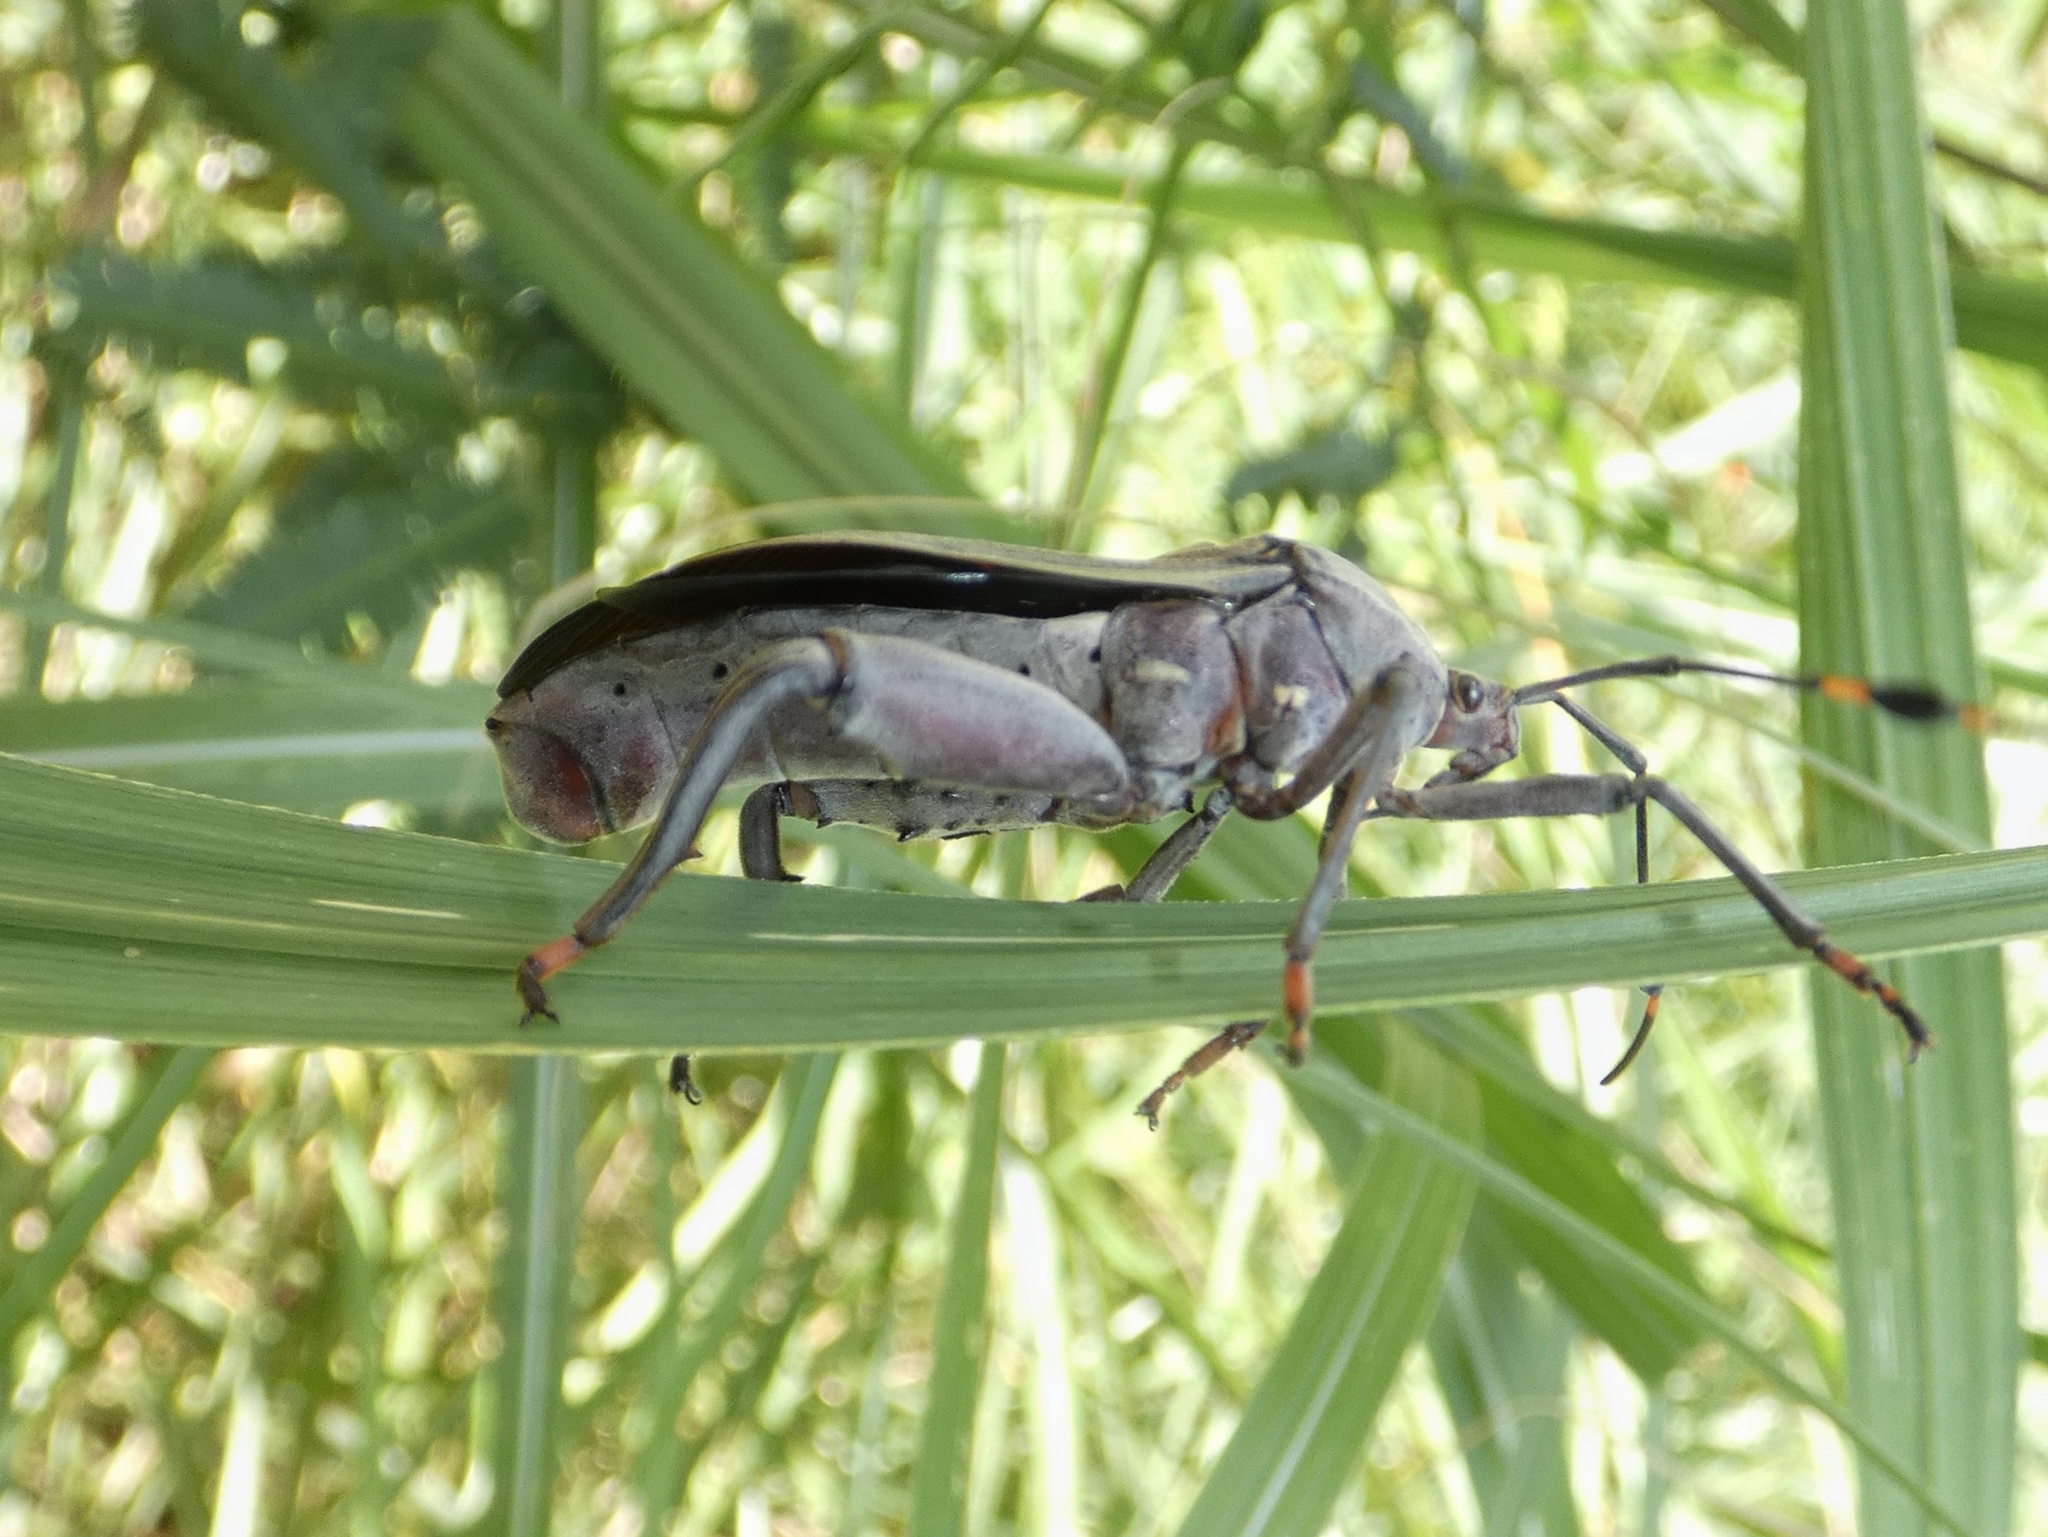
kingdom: Animalia
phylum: Arthropoda
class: Insecta
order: Hemiptera
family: Coreidae
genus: Pachylis
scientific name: Pachylis nervosus
